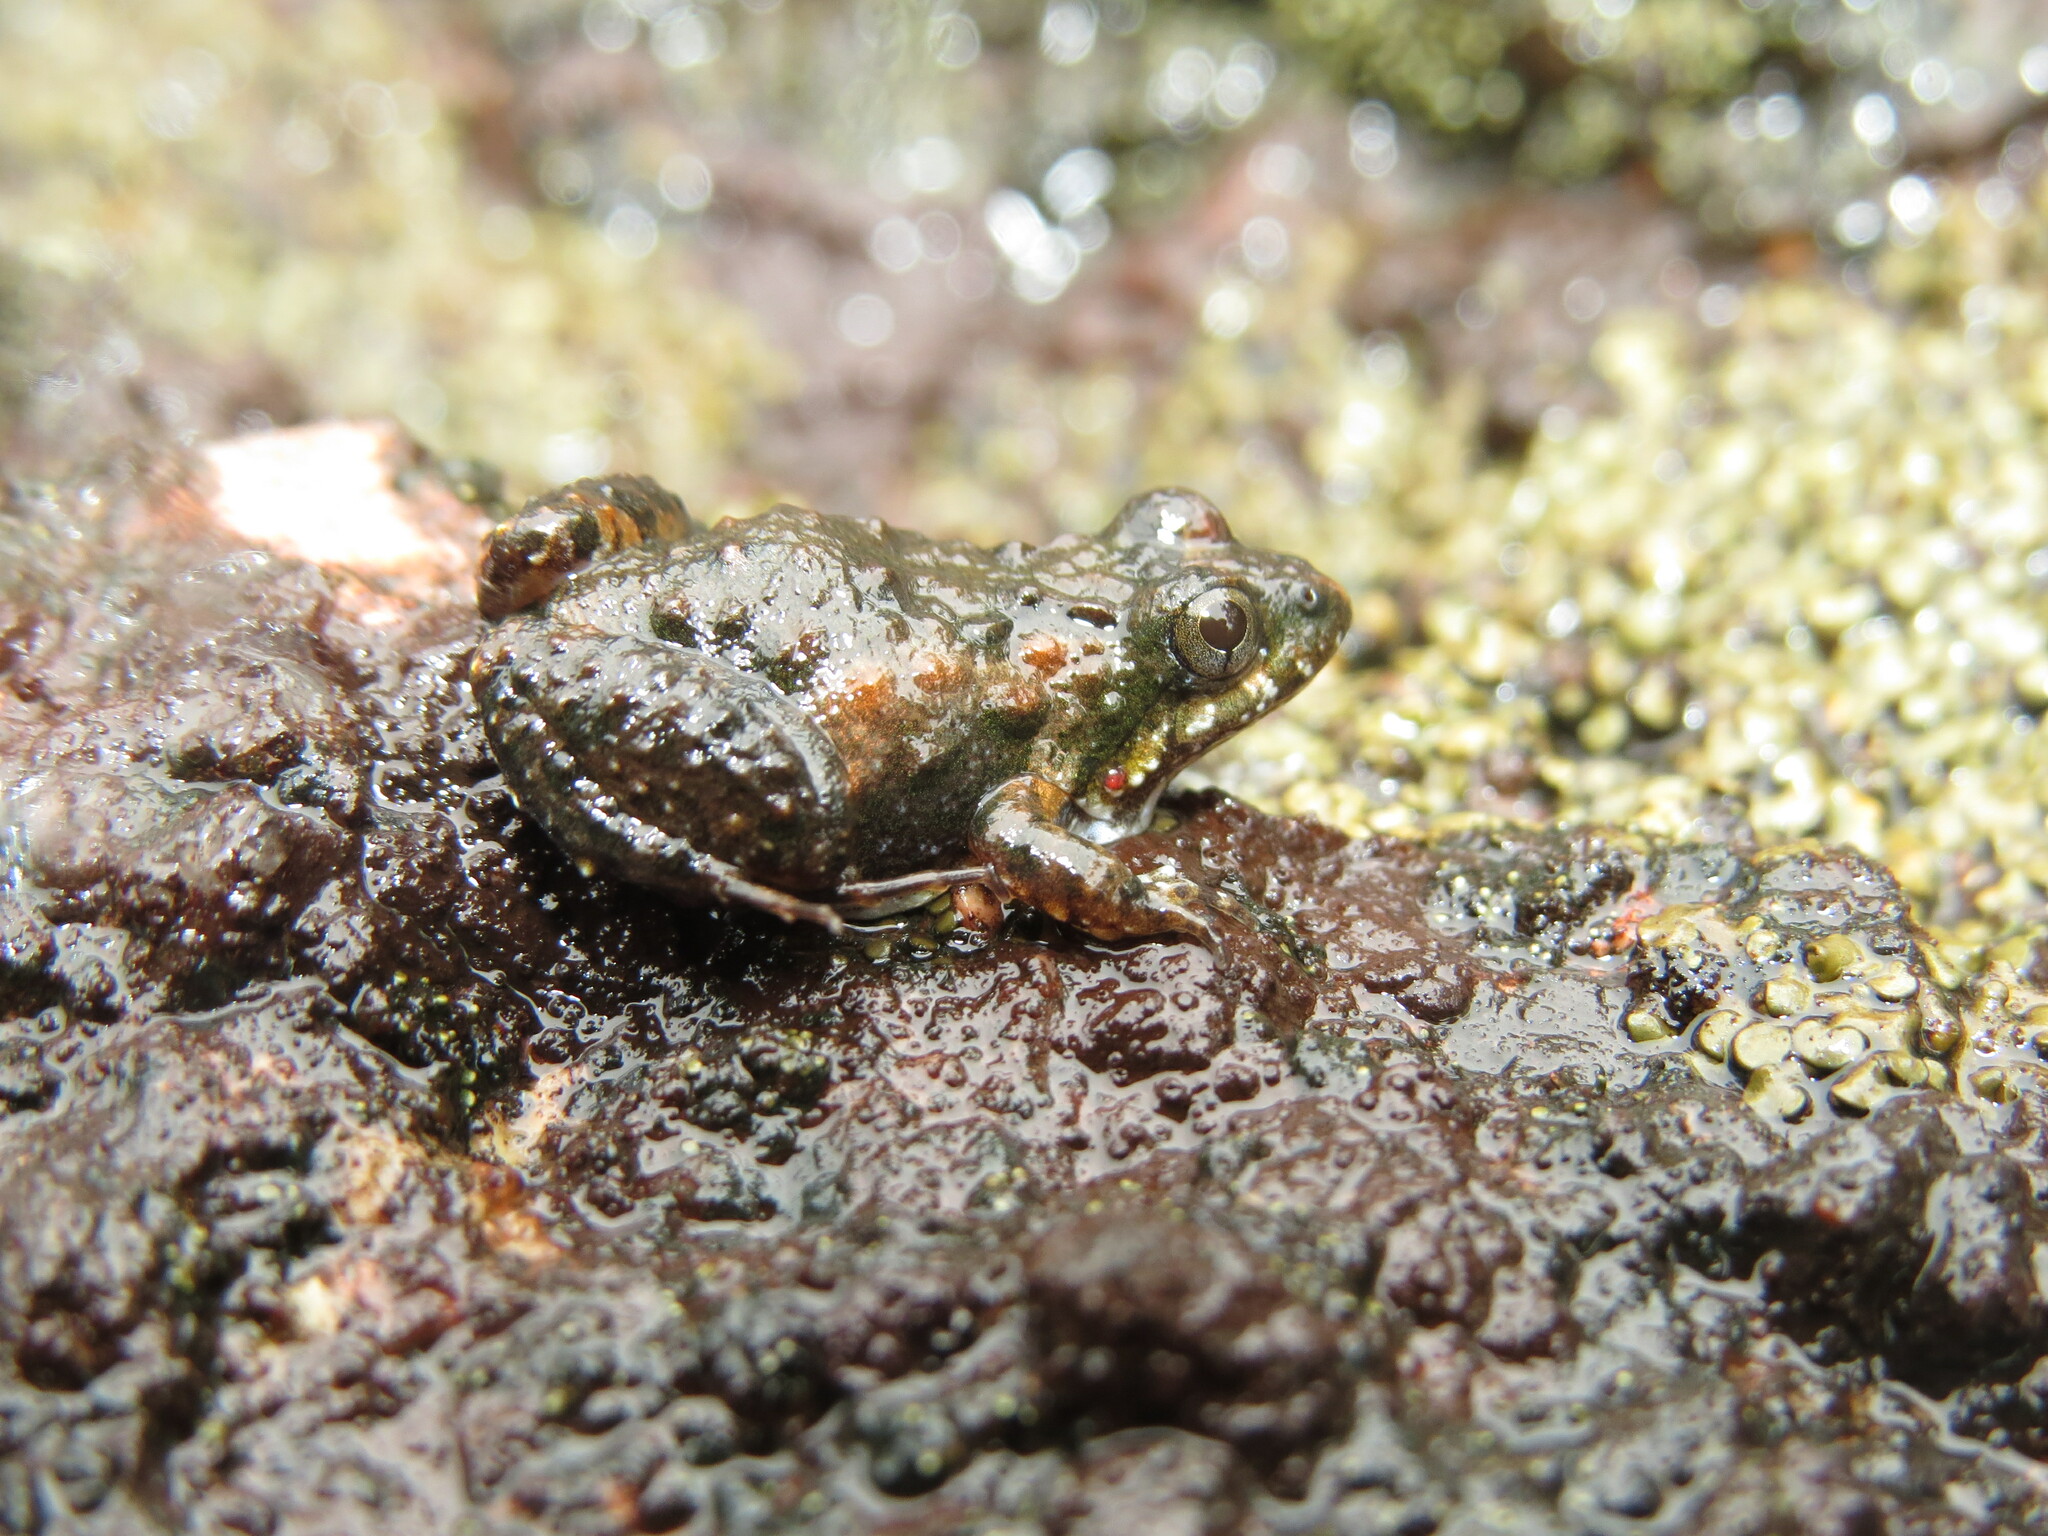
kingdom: Animalia
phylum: Chordata
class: Amphibia
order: Anura
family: Leptodactylidae
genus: Pseudopaludicola
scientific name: Pseudopaludicola canga
